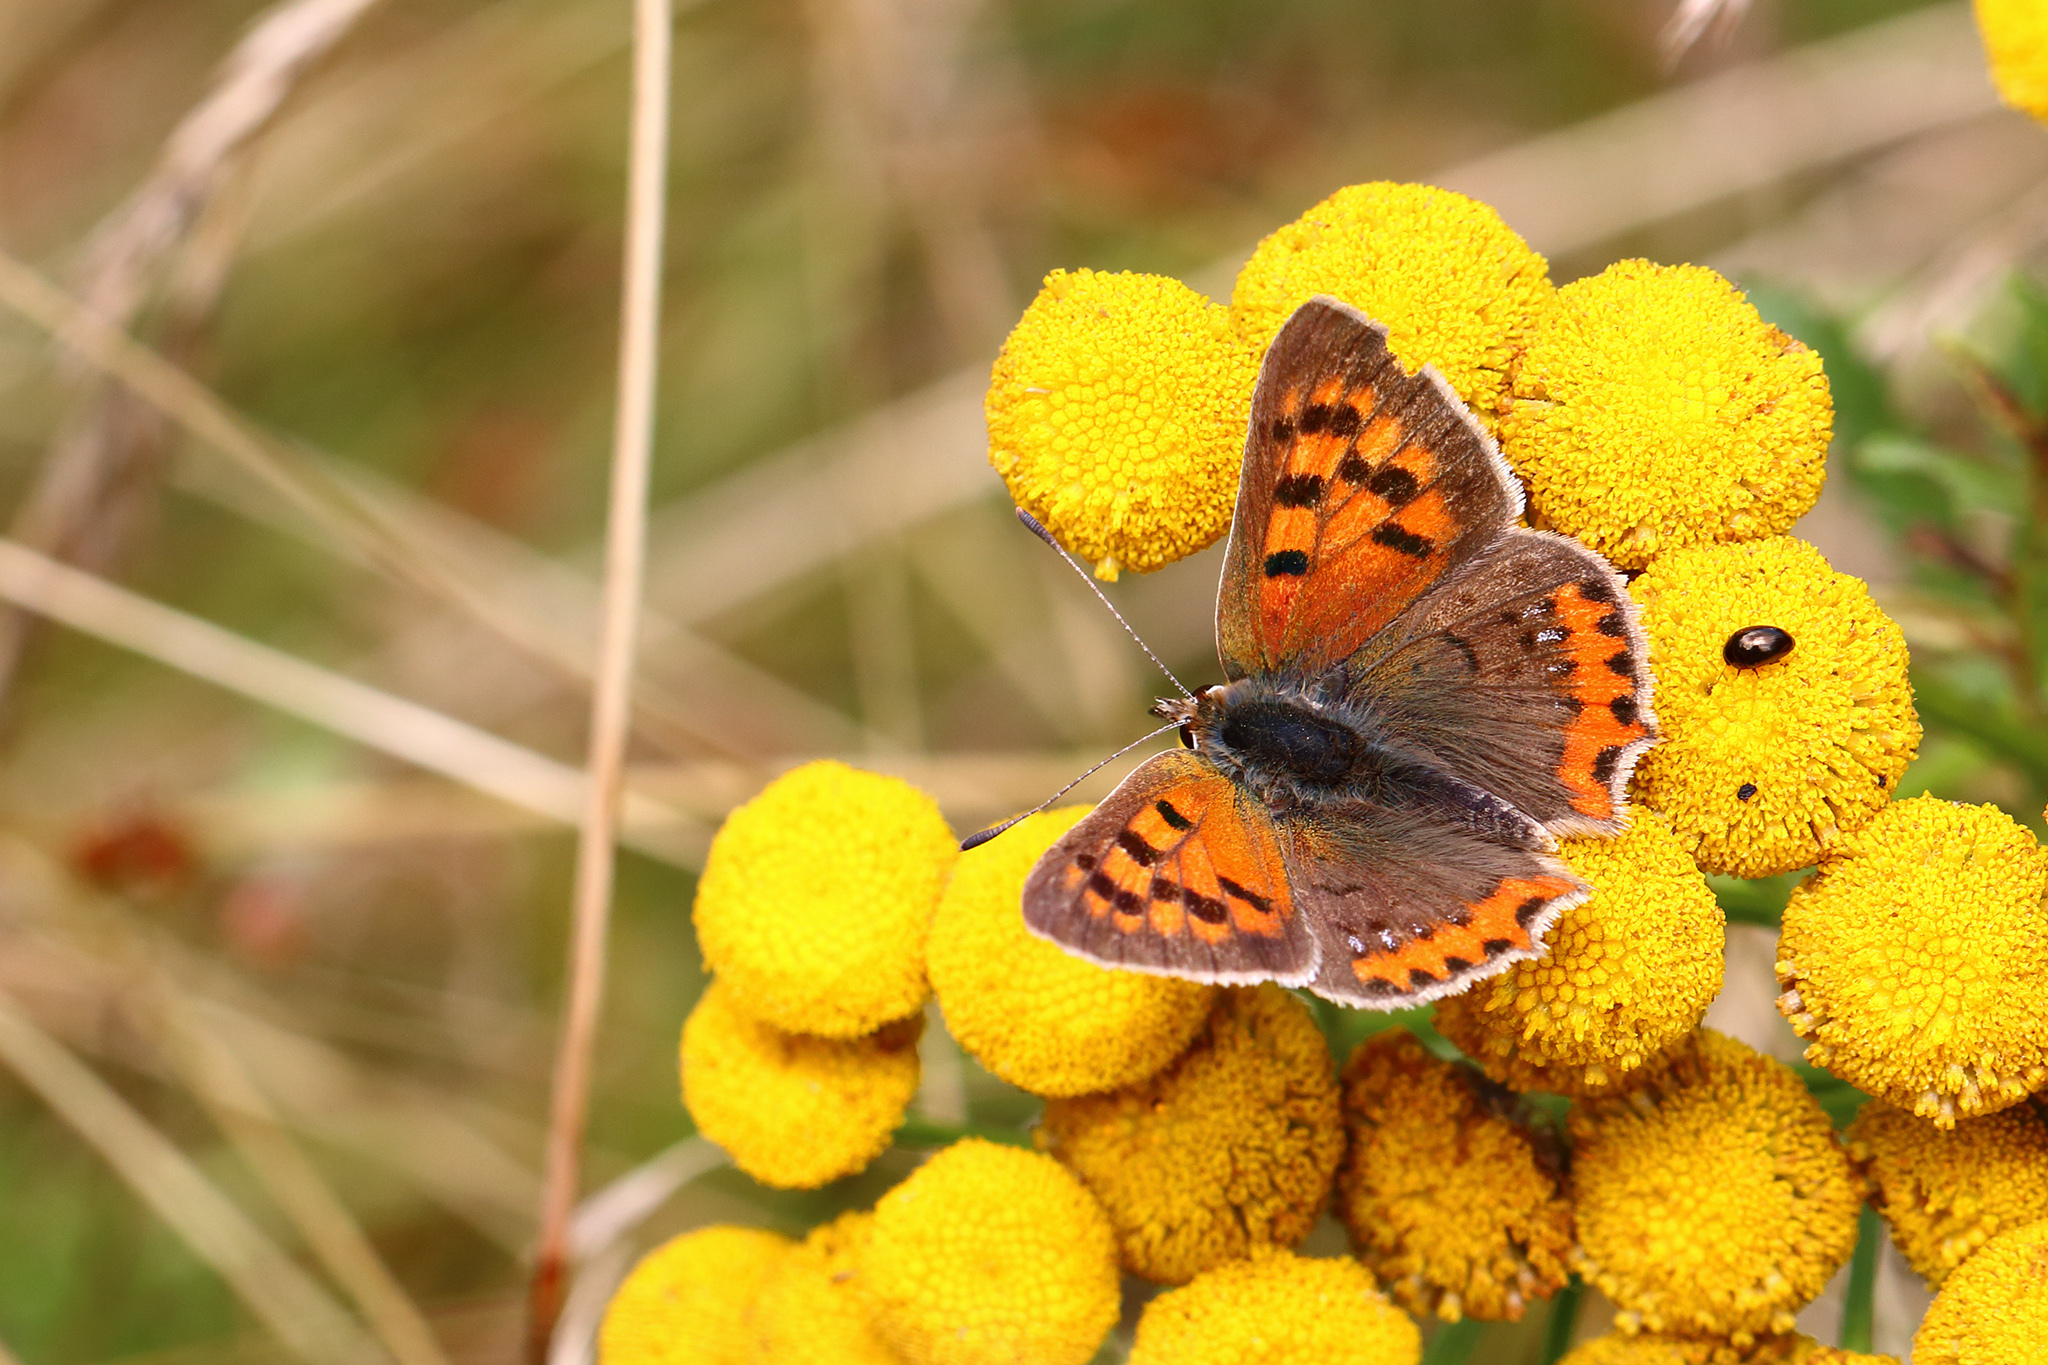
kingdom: Animalia
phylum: Arthropoda
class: Insecta
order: Lepidoptera
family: Lycaenidae
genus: Lycaena
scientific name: Lycaena phlaeas
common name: Small copper
